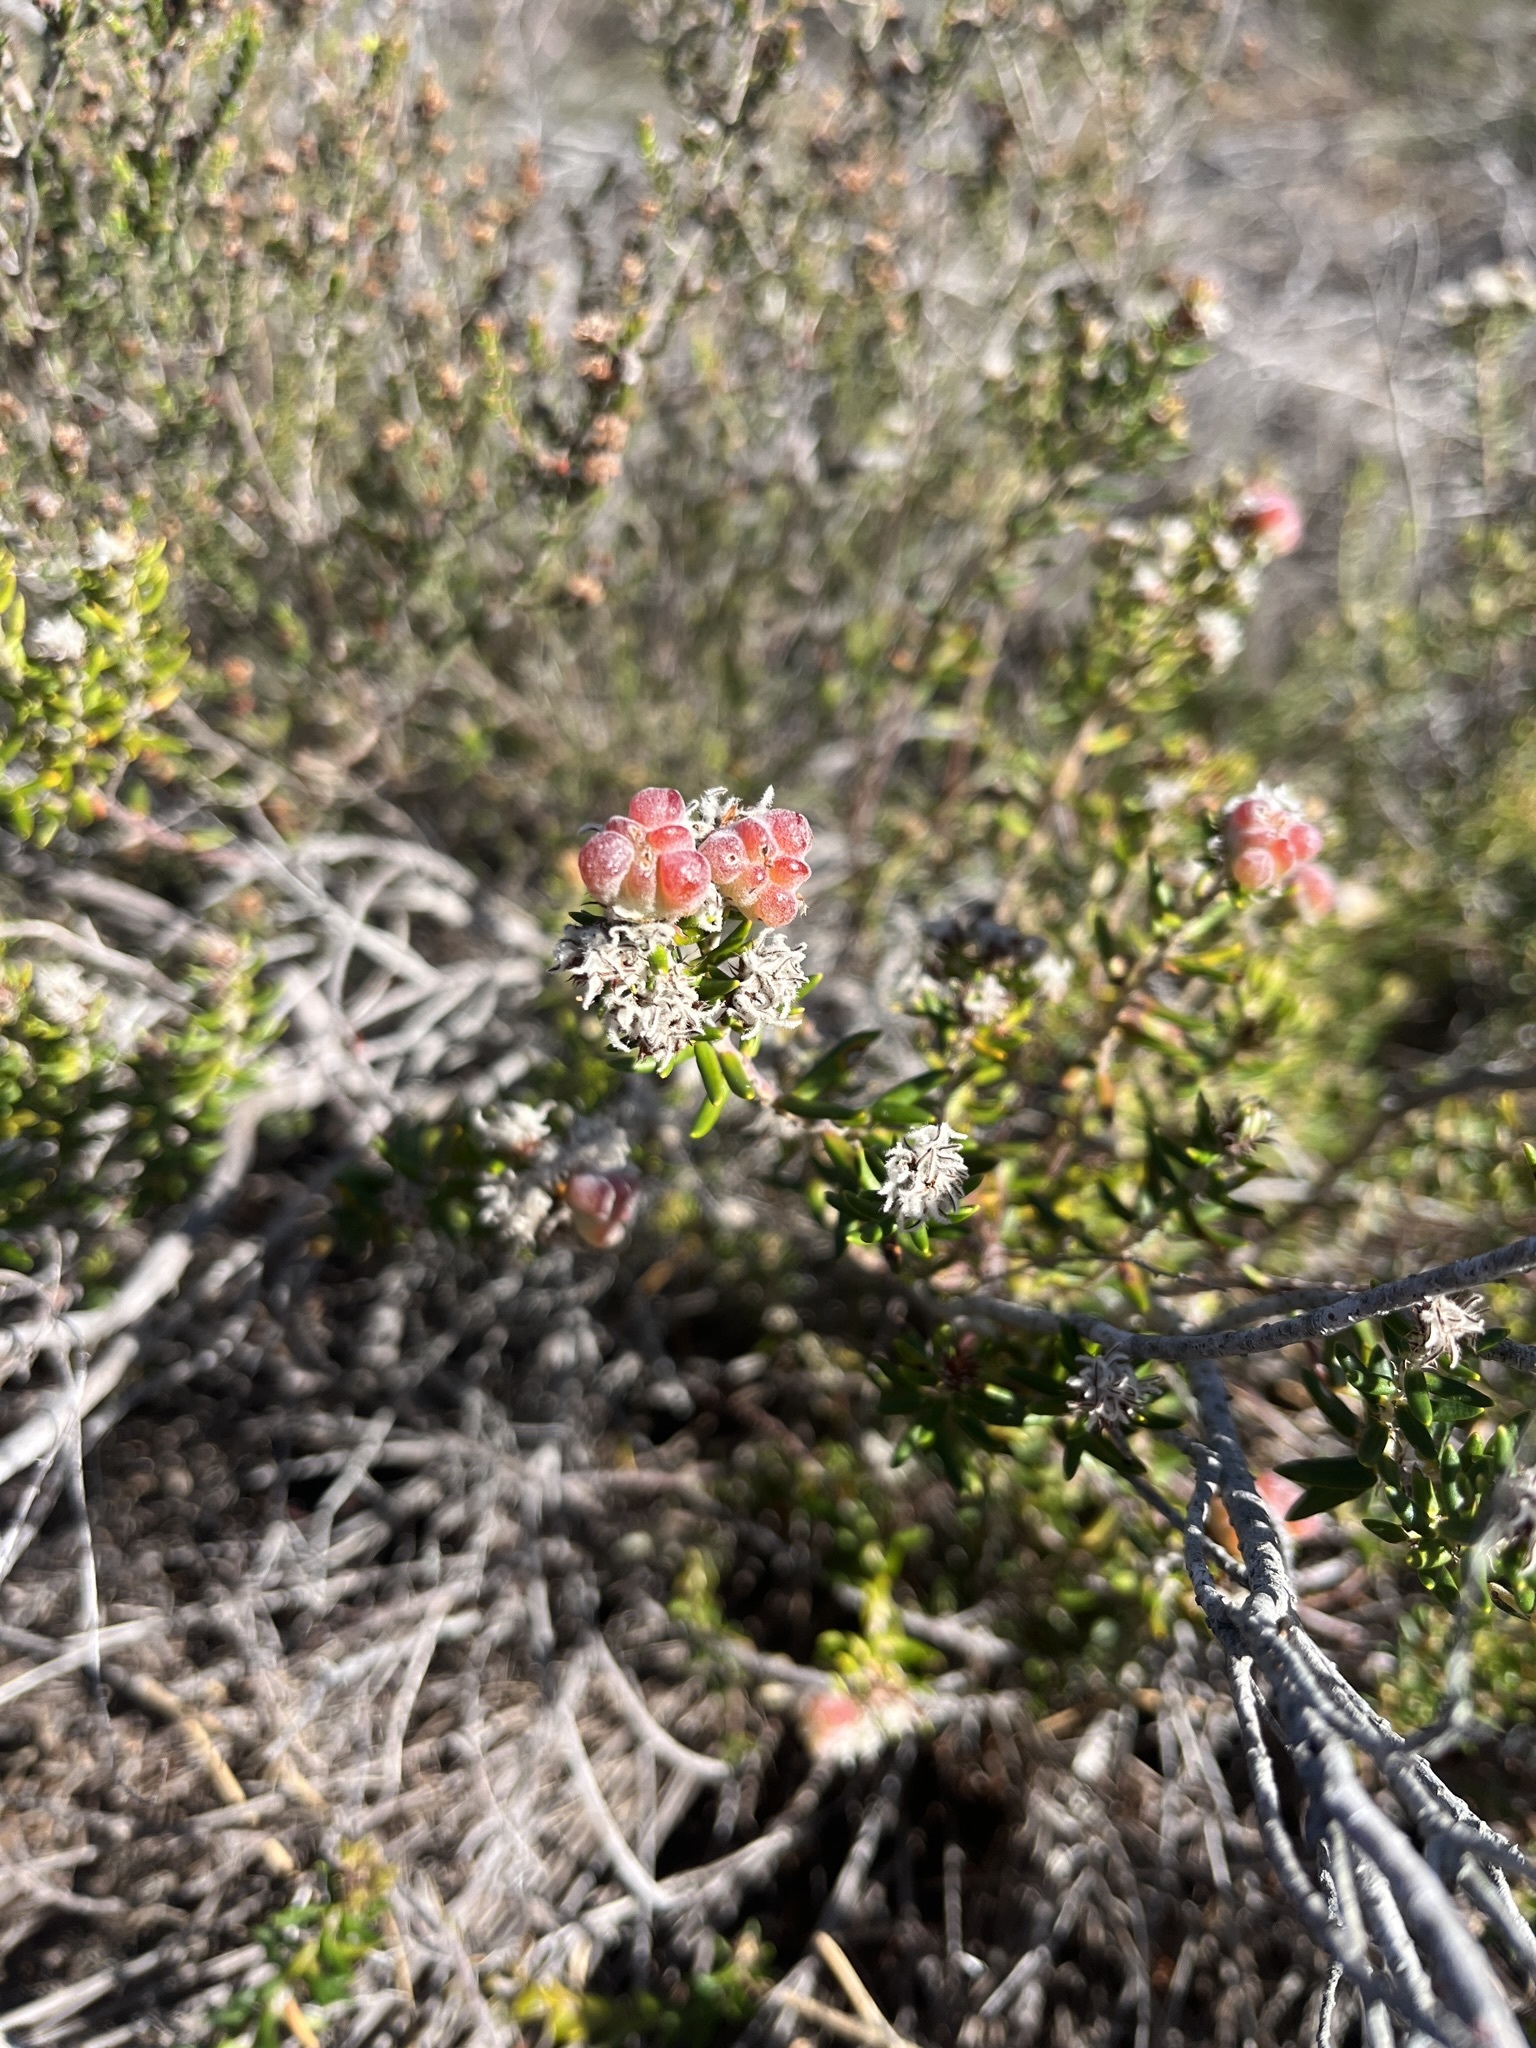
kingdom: Plantae
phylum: Tracheophyta
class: Magnoliopsida
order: Rosales
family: Rhamnaceae
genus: Trichocephalus
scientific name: Trichocephalus stipularis
